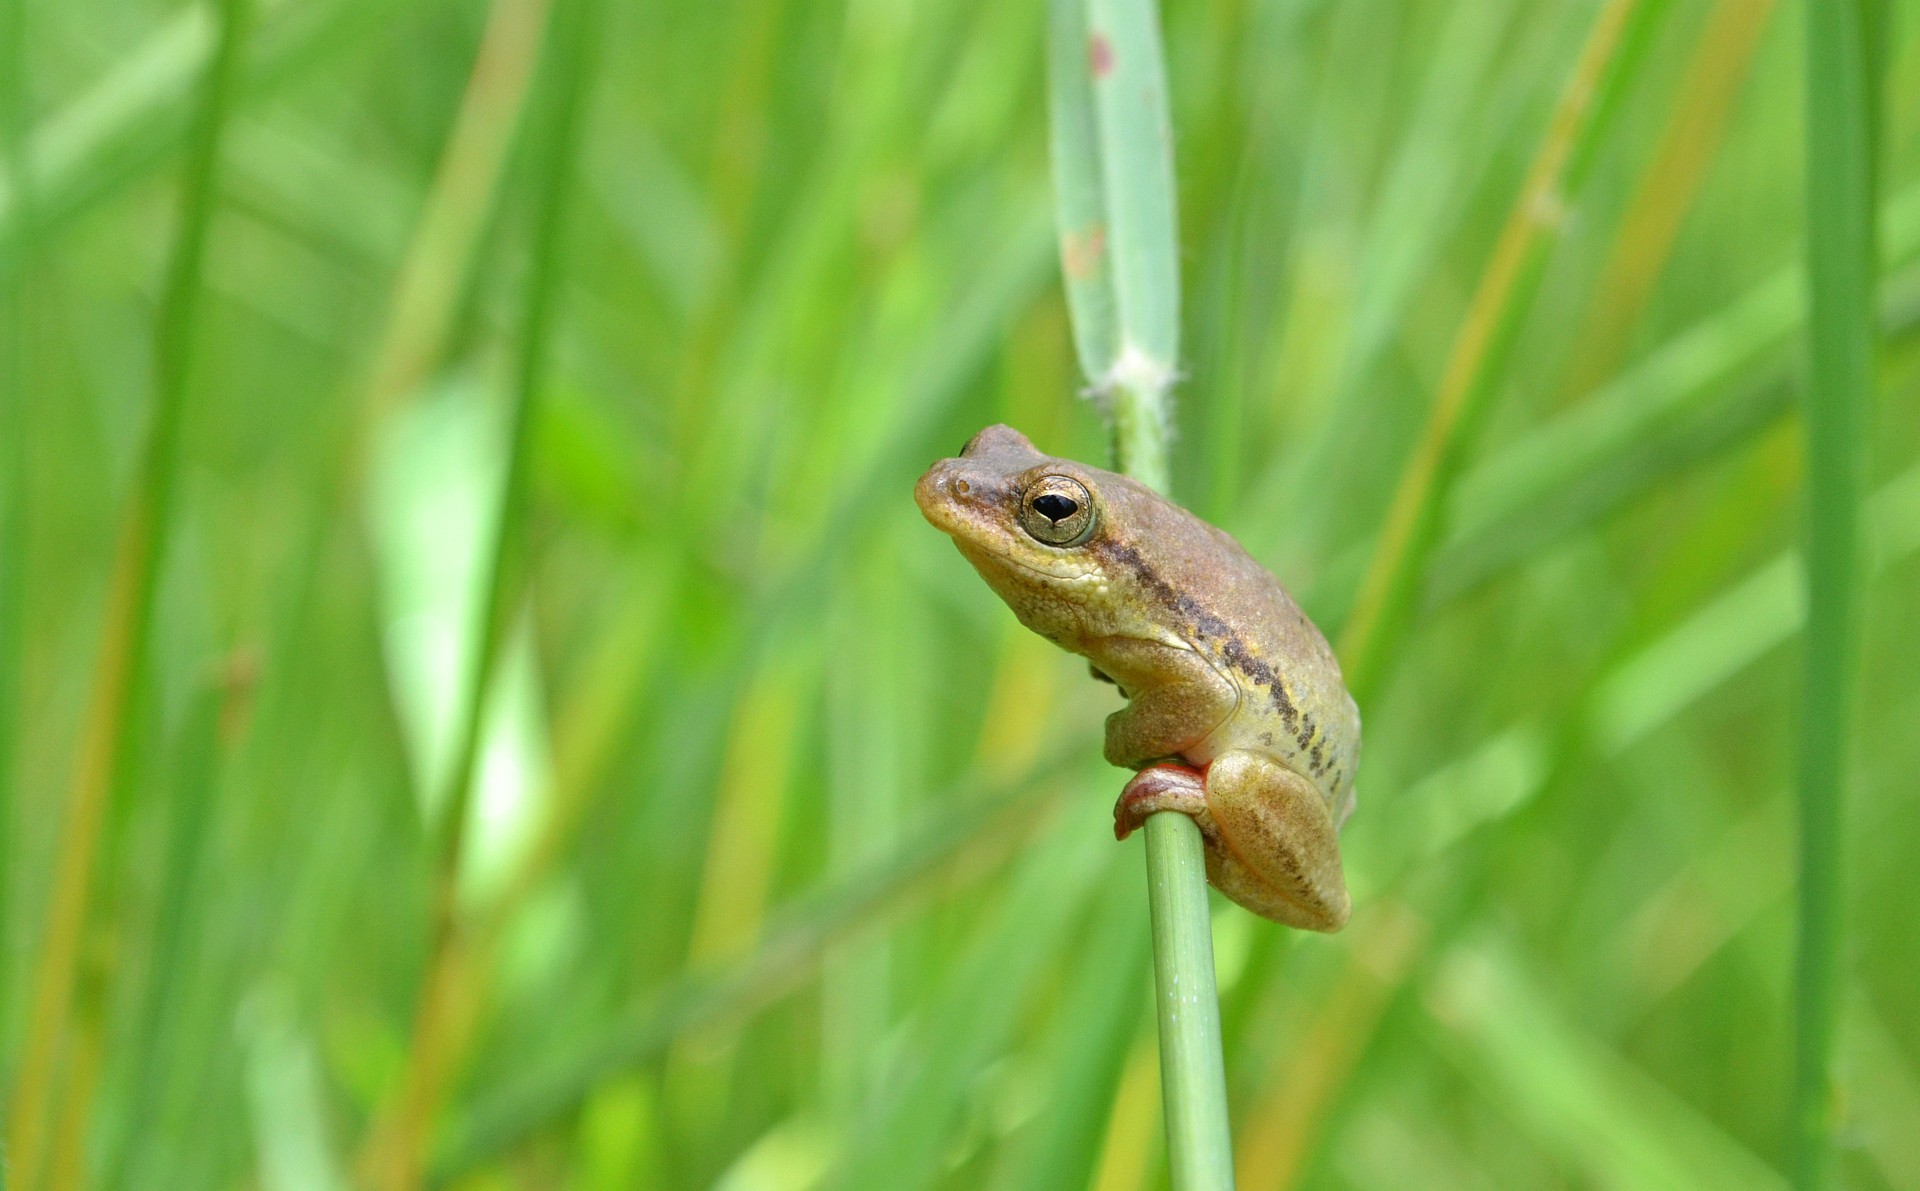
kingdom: Animalia
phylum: Chordata
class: Amphibia
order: Anura
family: Hyperoliidae
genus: Hyperolius
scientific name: Hyperolius nitidulus
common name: Plain reed frog
